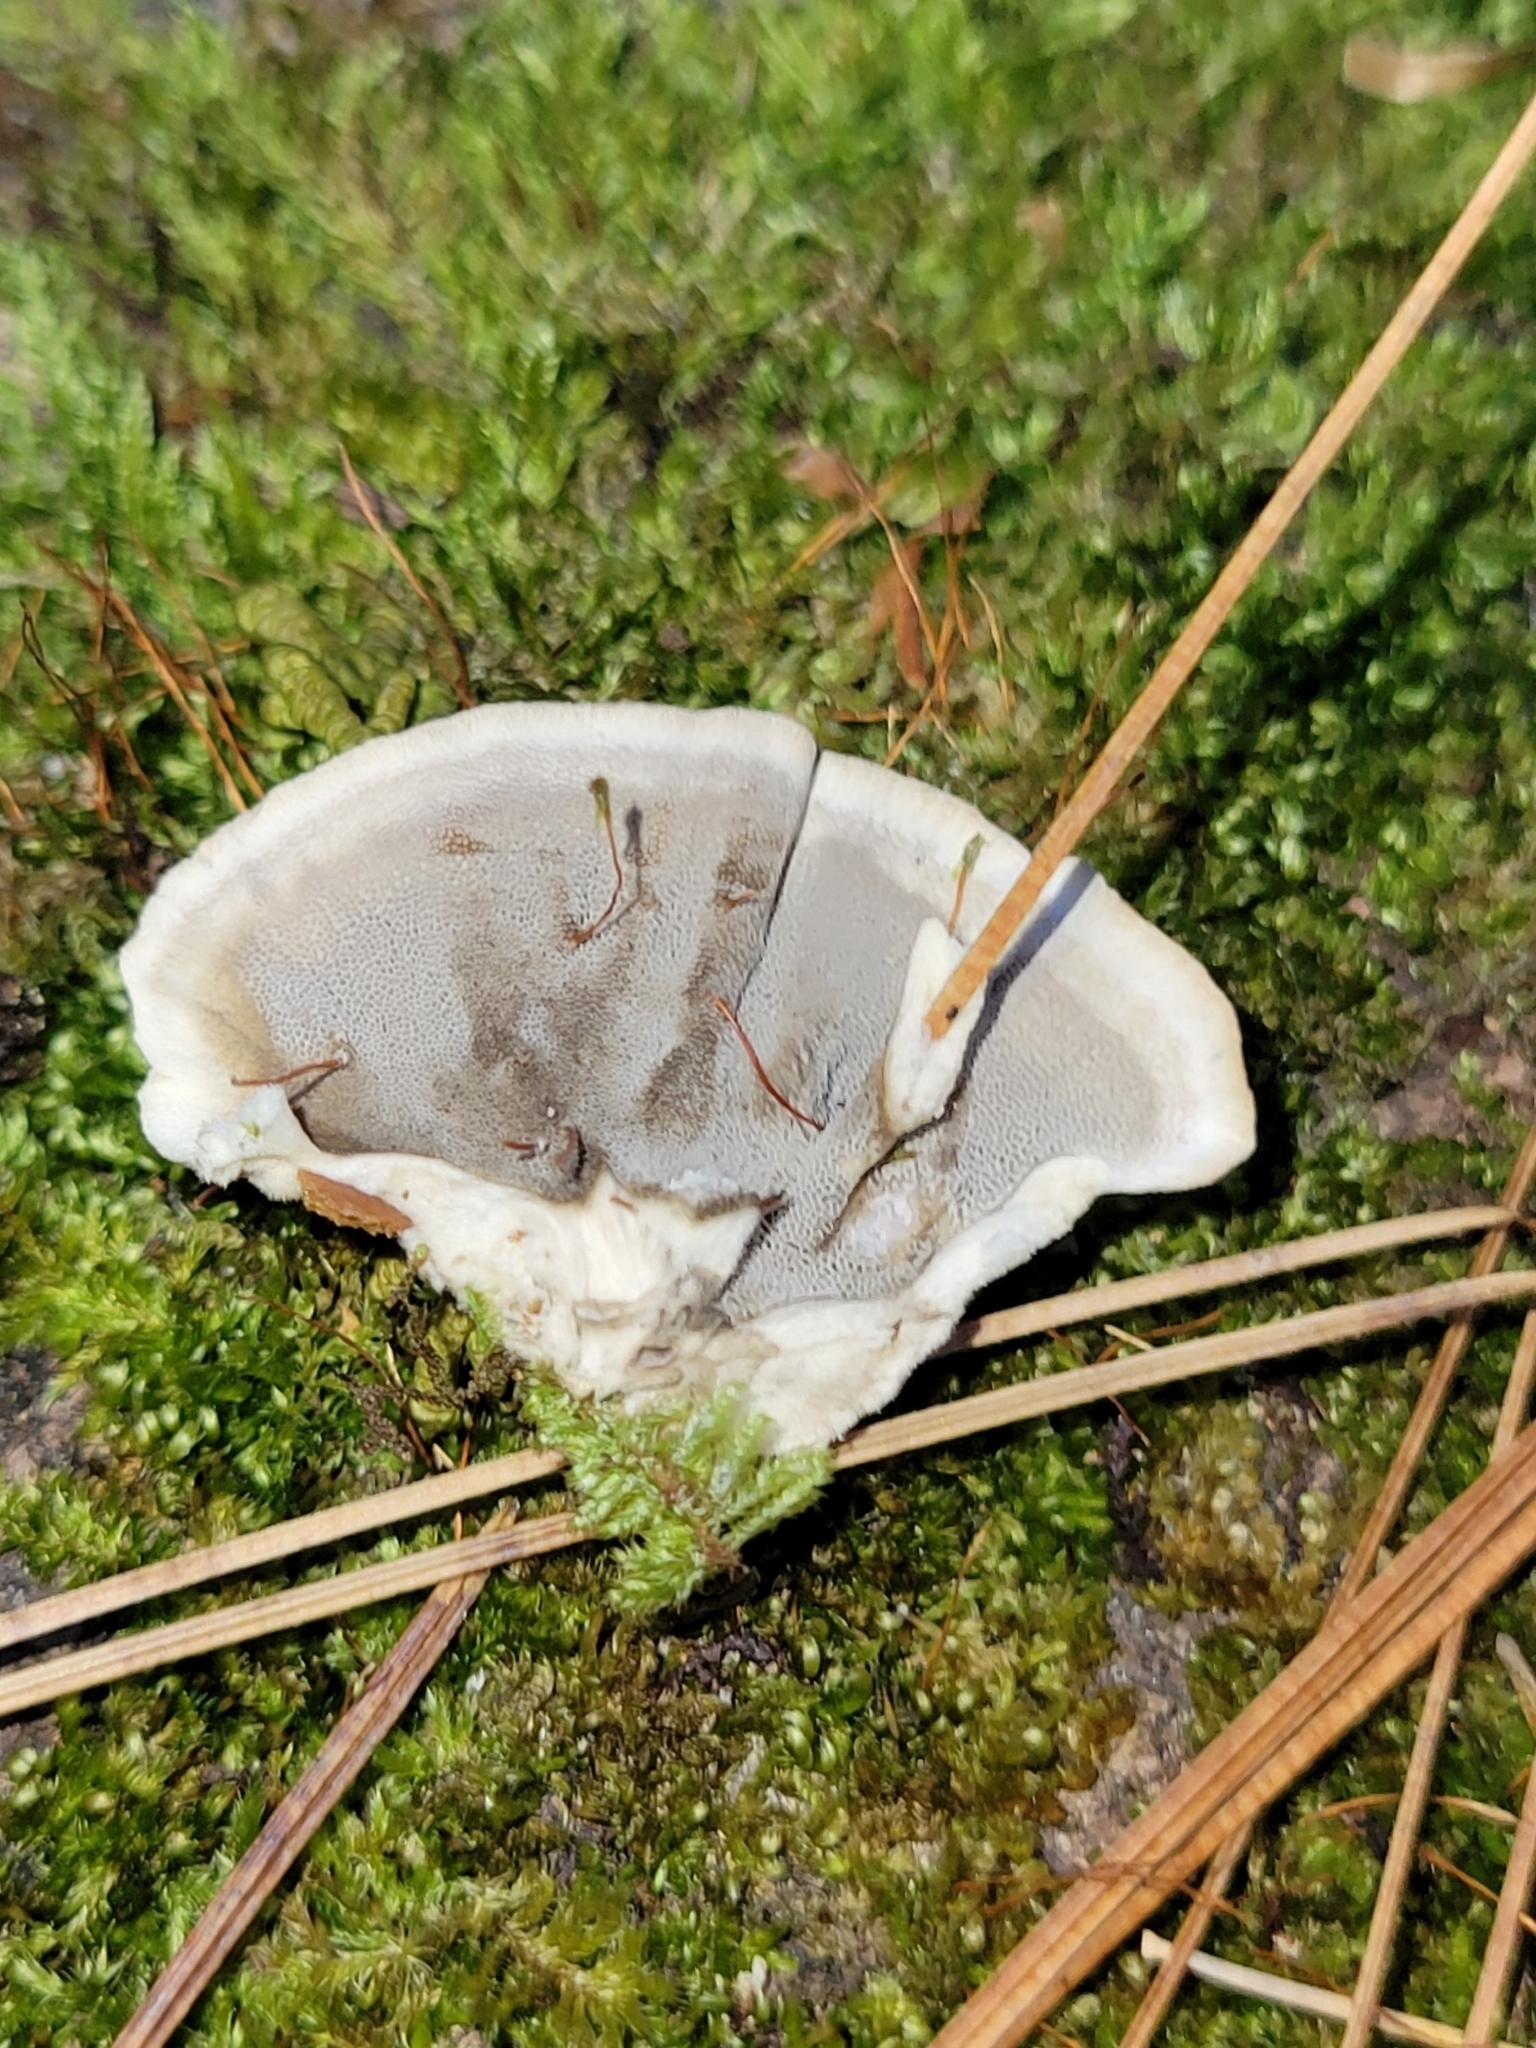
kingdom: Fungi
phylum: Basidiomycota
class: Agaricomycetes
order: Polyporales
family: Phanerochaetaceae
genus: Bjerkandera
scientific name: Bjerkandera adusta
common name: Smoky bracket
